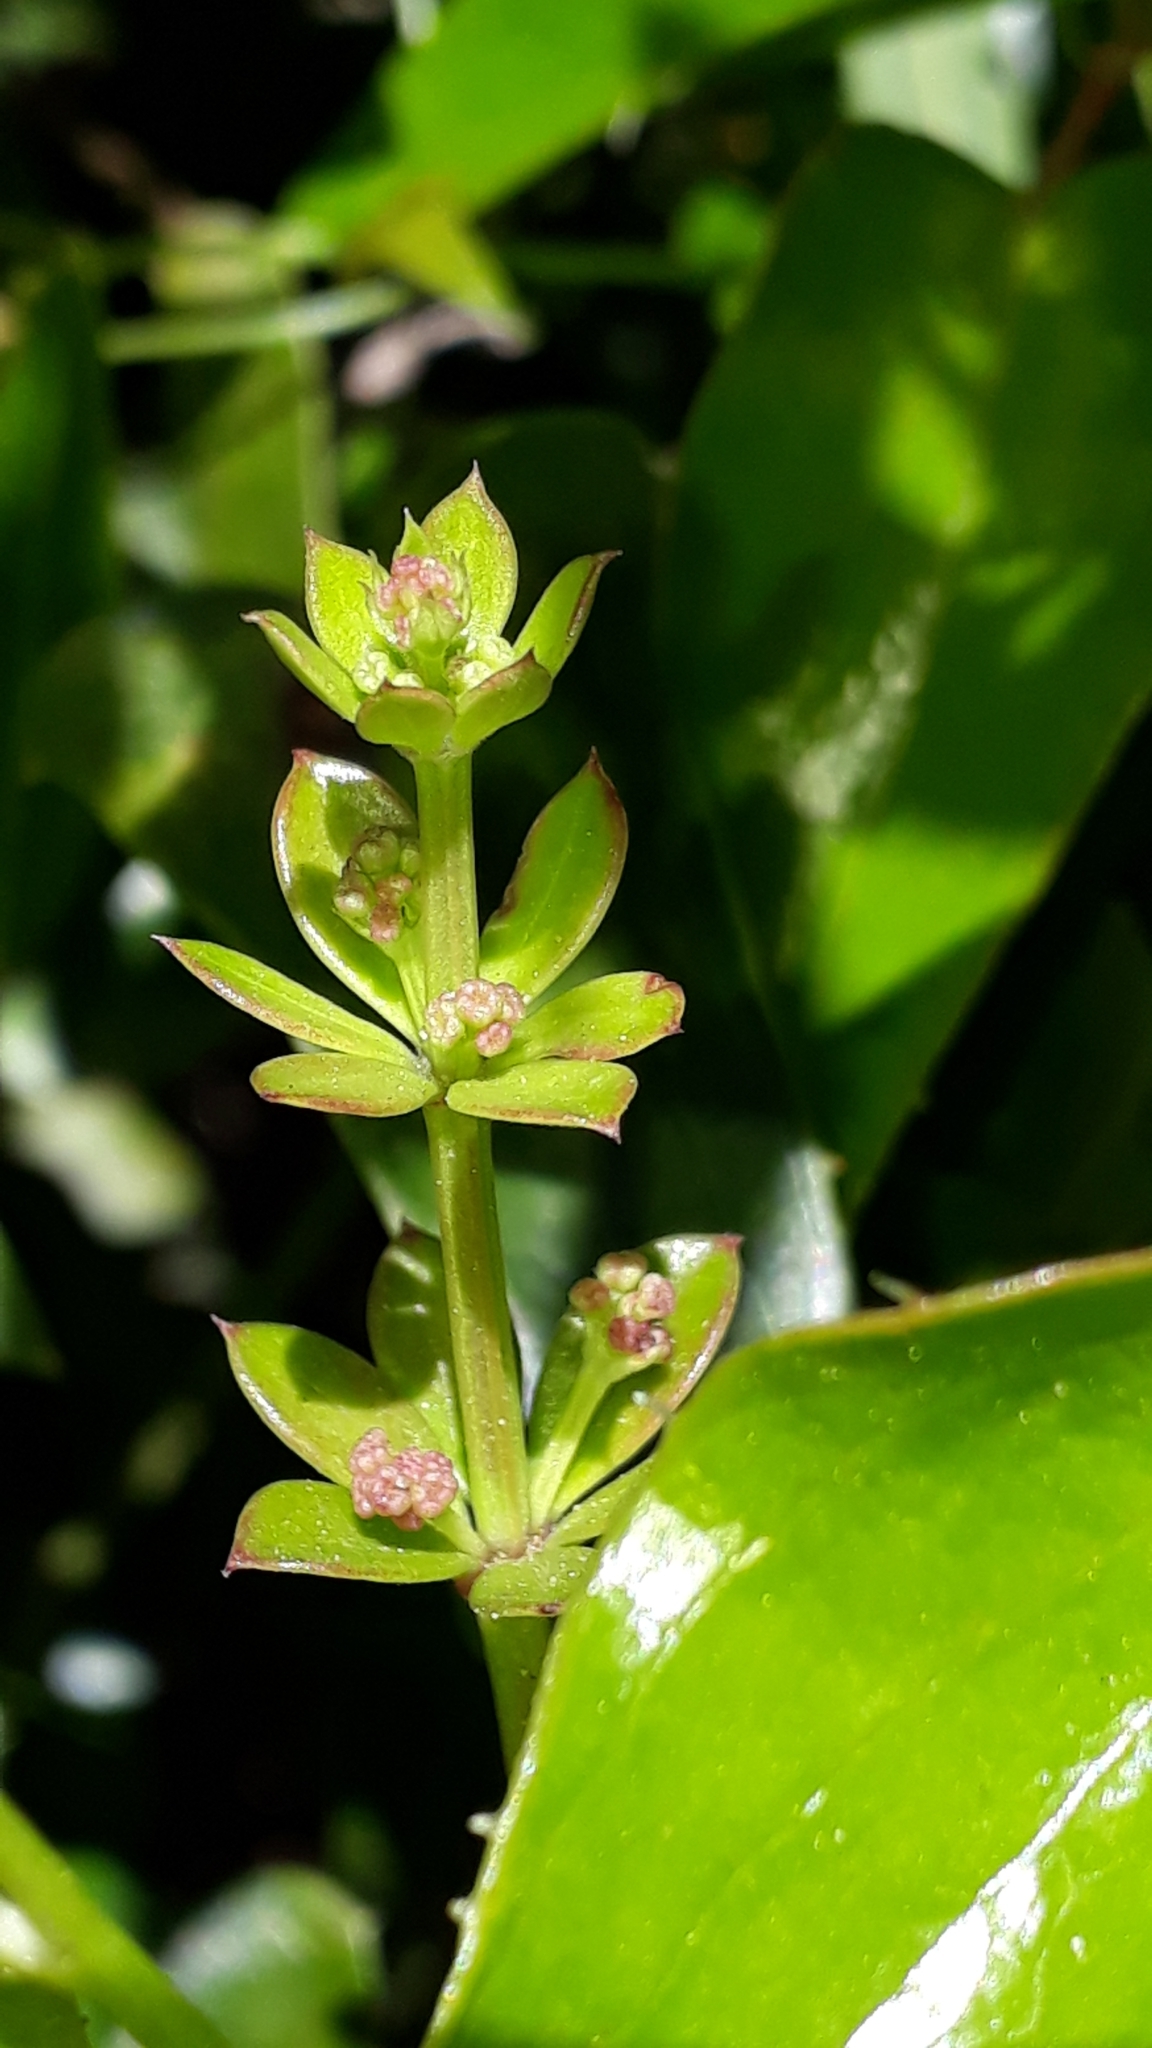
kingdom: Plantae
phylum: Tracheophyta
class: Magnoliopsida
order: Gentianales
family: Rubiaceae
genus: Rubia
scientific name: Rubia peregrina
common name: Wild madder
